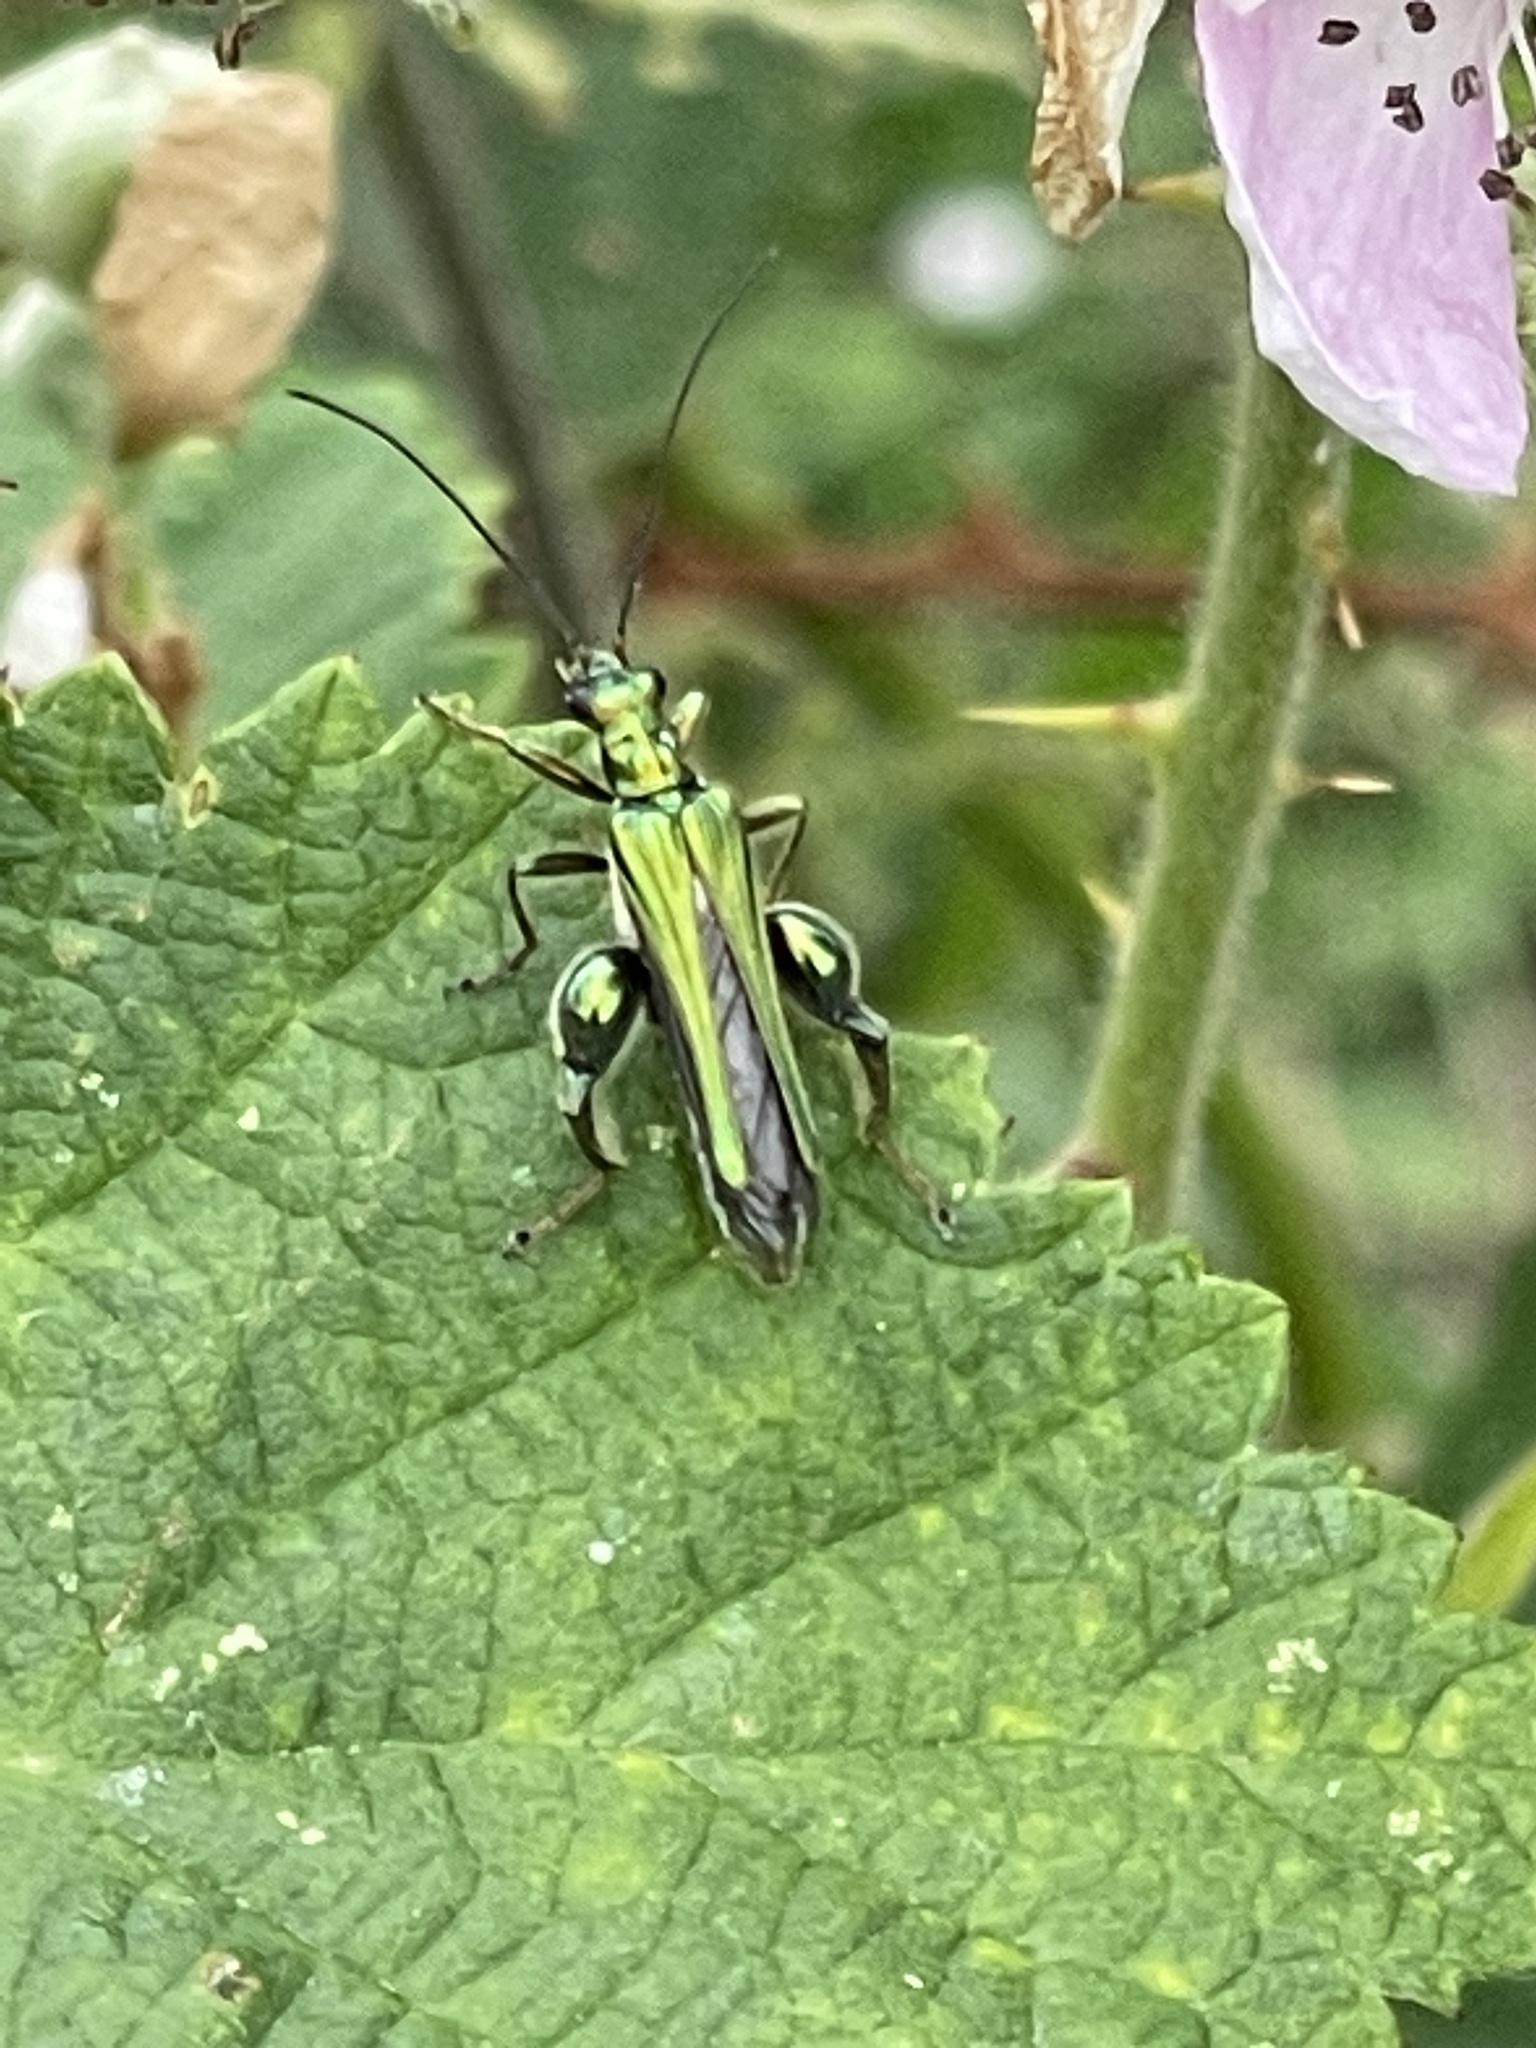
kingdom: Animalia
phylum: Arthropoda
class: Insecta
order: Coleoptera
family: Oedemeridae
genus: Oedemera
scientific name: Oedemera nobilis
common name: Swollen-thighed beetle
